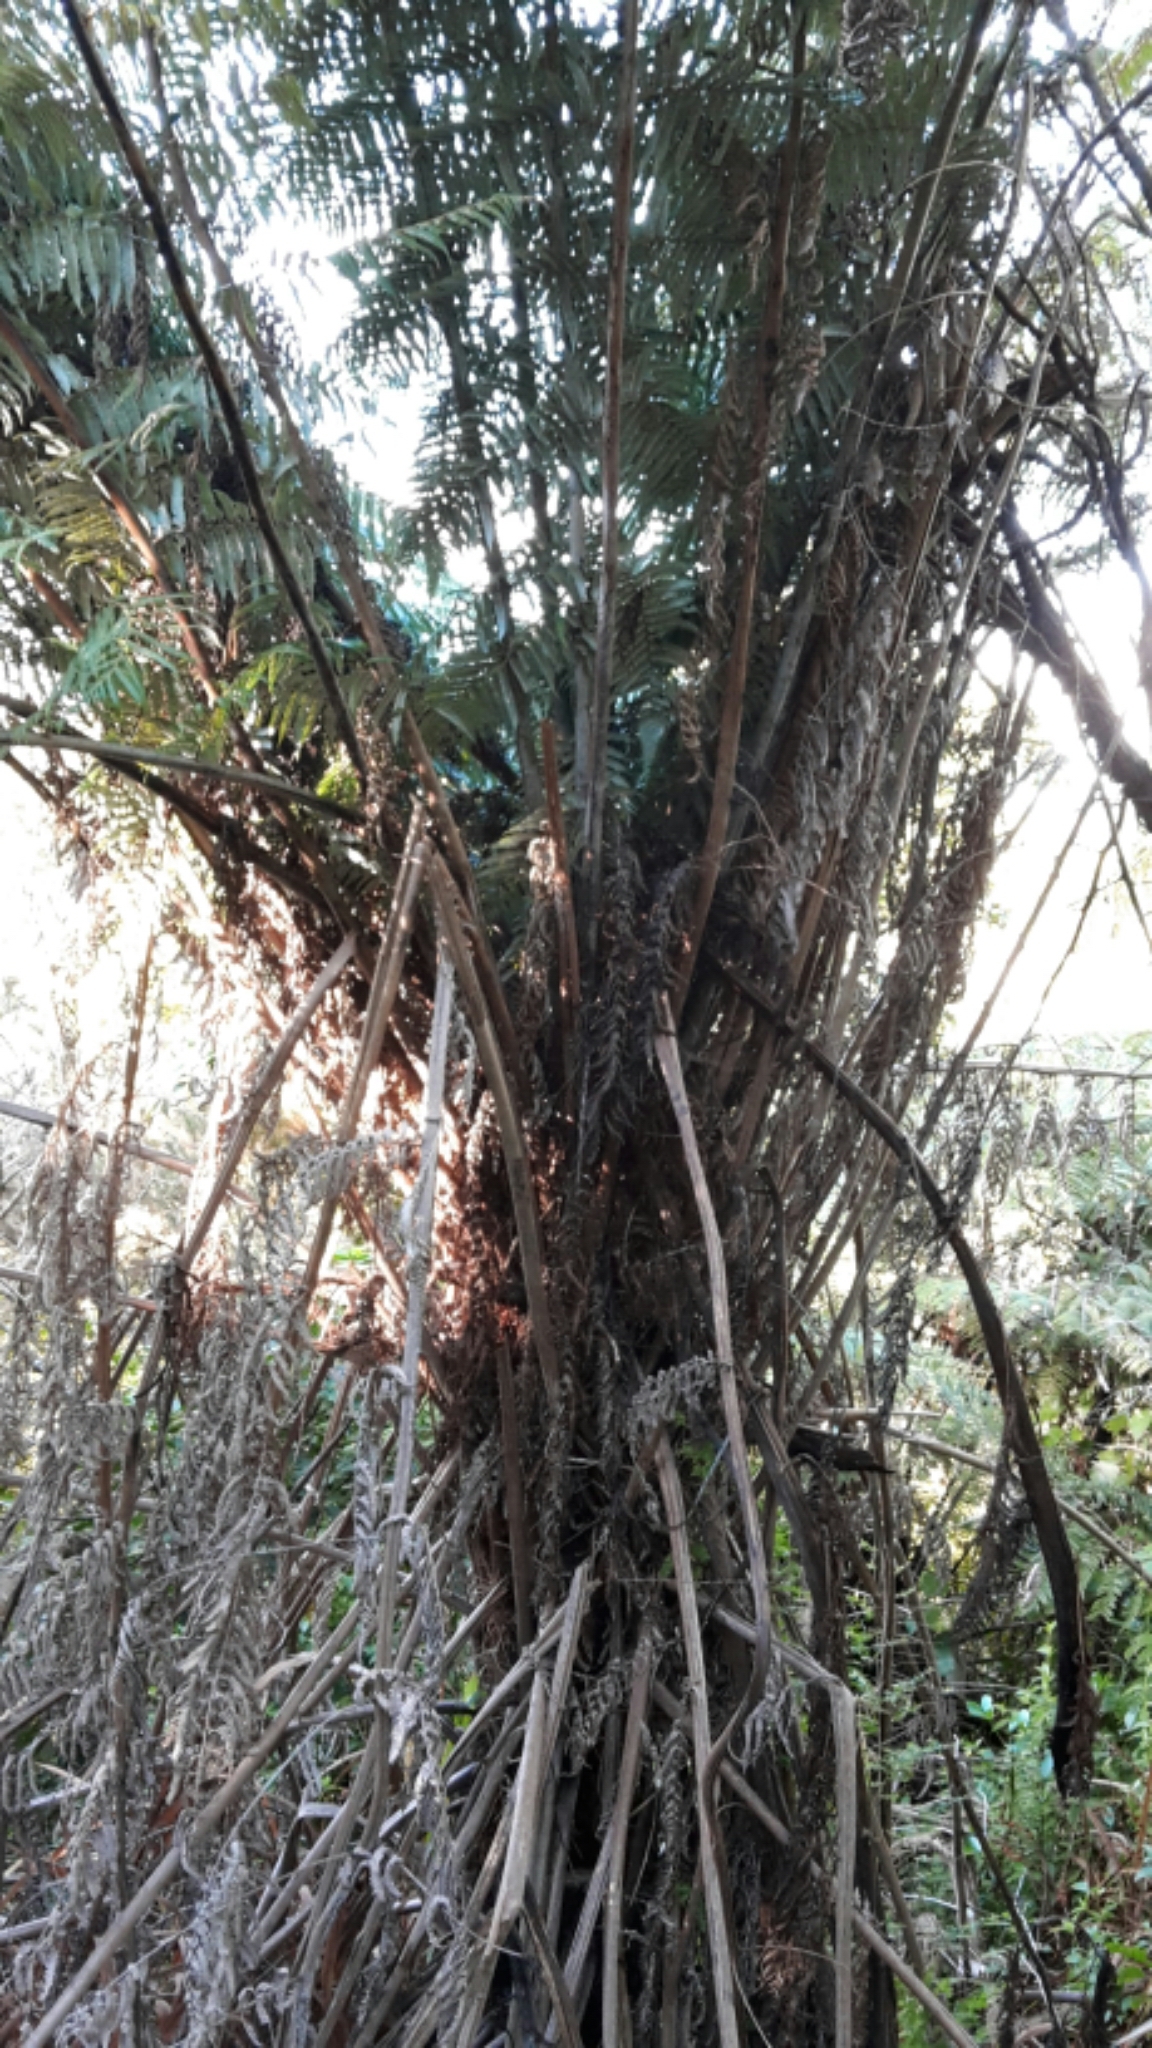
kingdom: Plantae
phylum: Tracheophyta
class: Polypodiopsida
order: Cyatheales
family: Cyatheaceae
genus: Alsophila
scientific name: Alsophila dealbata
